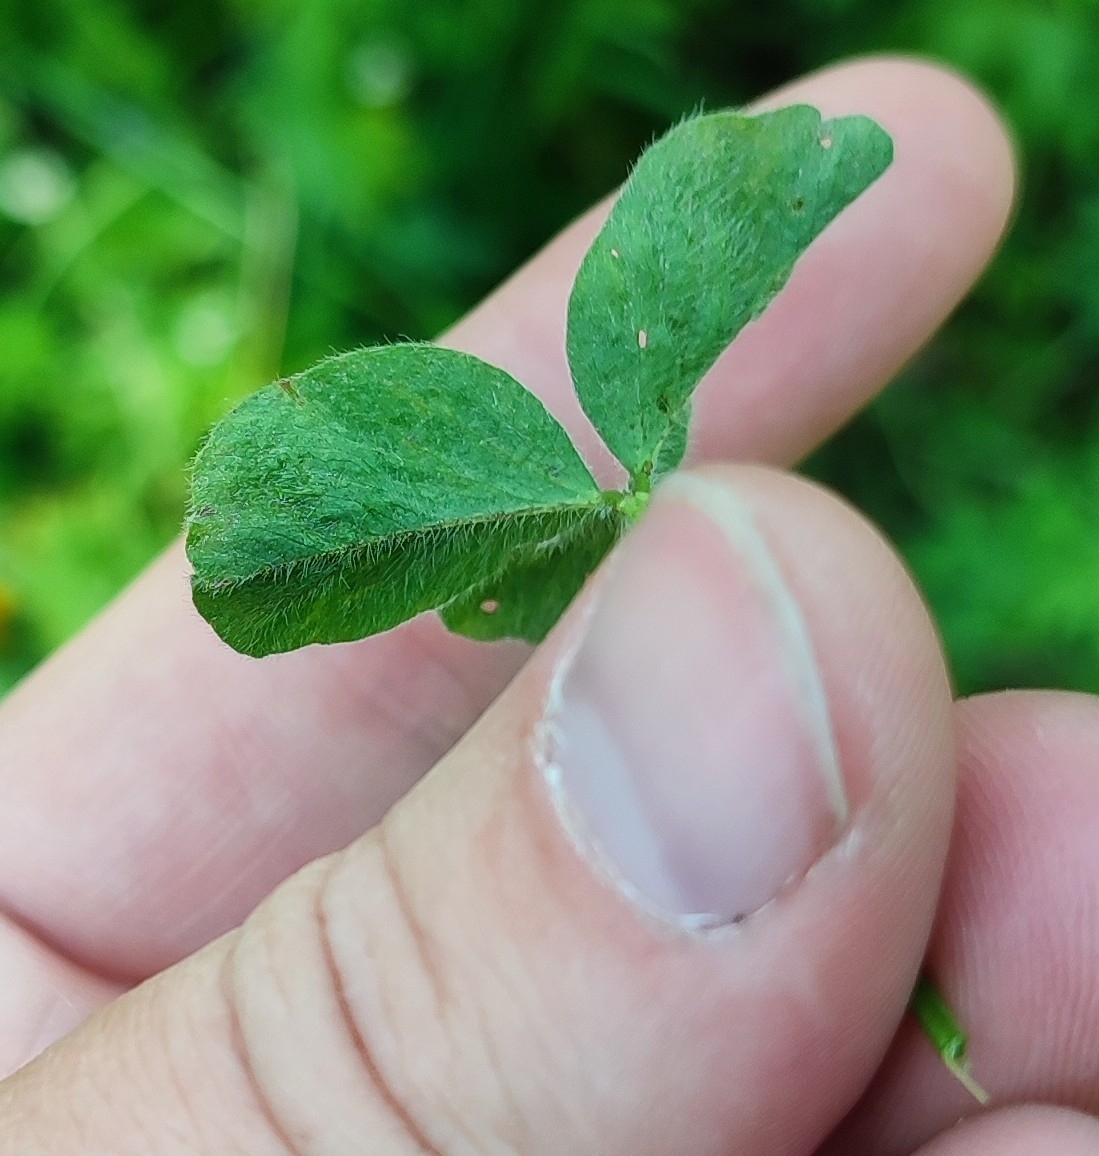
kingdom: Plantae
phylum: Tracheophyta
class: Magnoliopsida
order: Fabales
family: Fabaceae
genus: Trifolium
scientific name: Trifolium pratense
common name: Red clover
